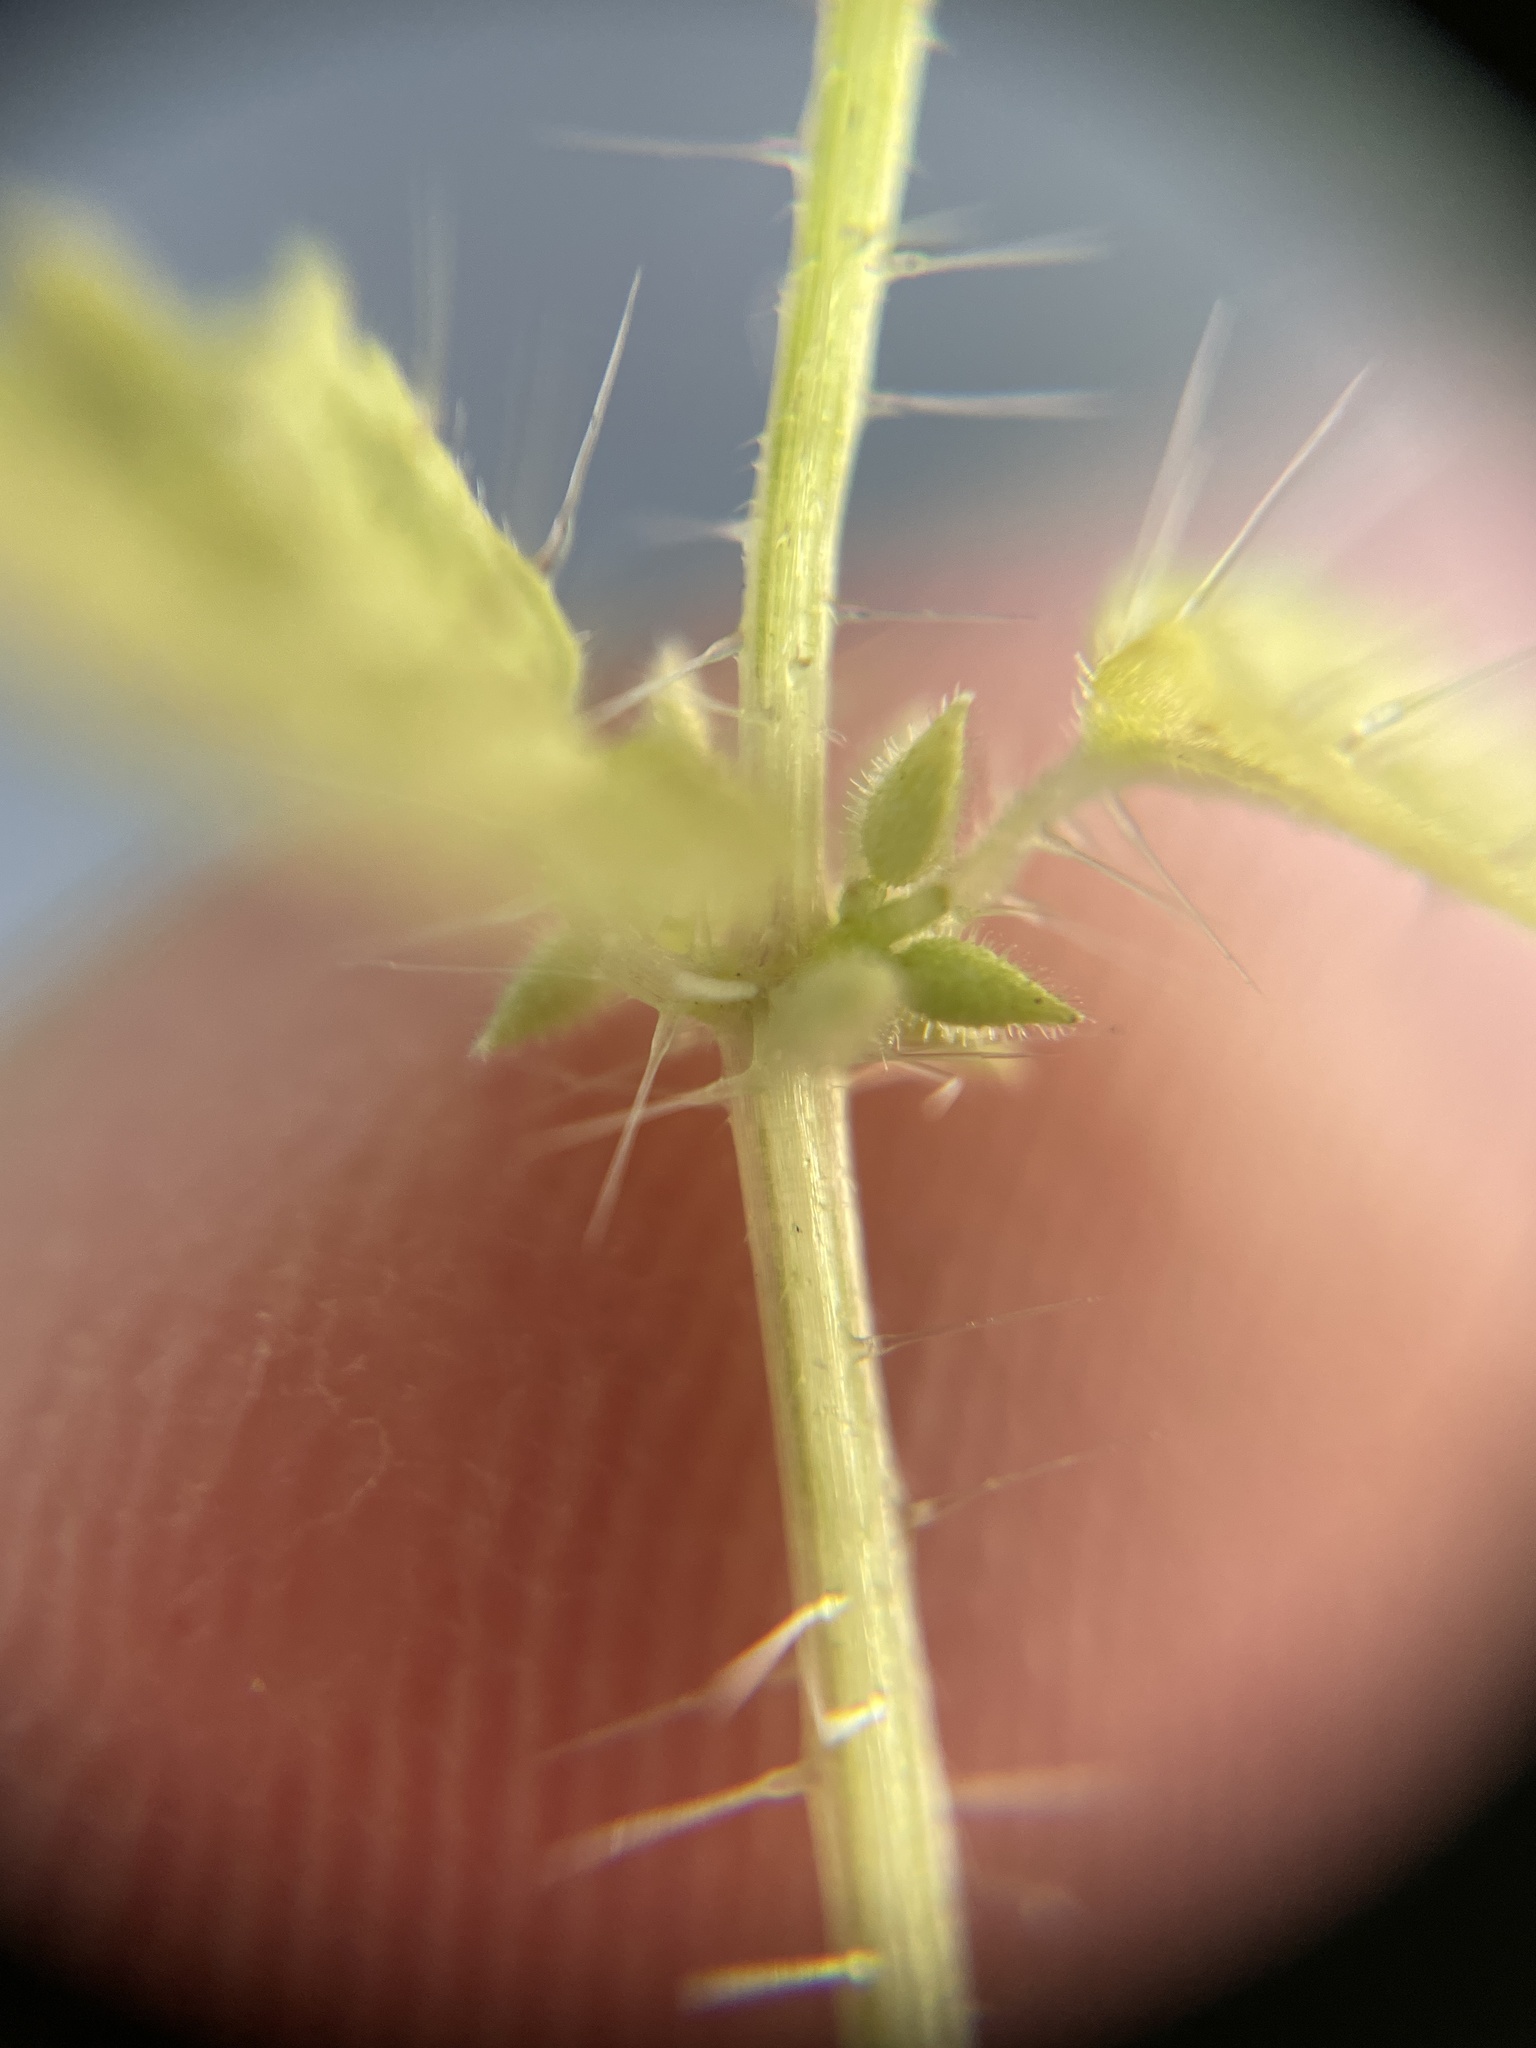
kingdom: Plantae
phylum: Tracheophyta
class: Magnoliopsida
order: Rosales
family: Urticaceae
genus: Urtica
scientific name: Urtica urens
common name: Dwarf nettle
